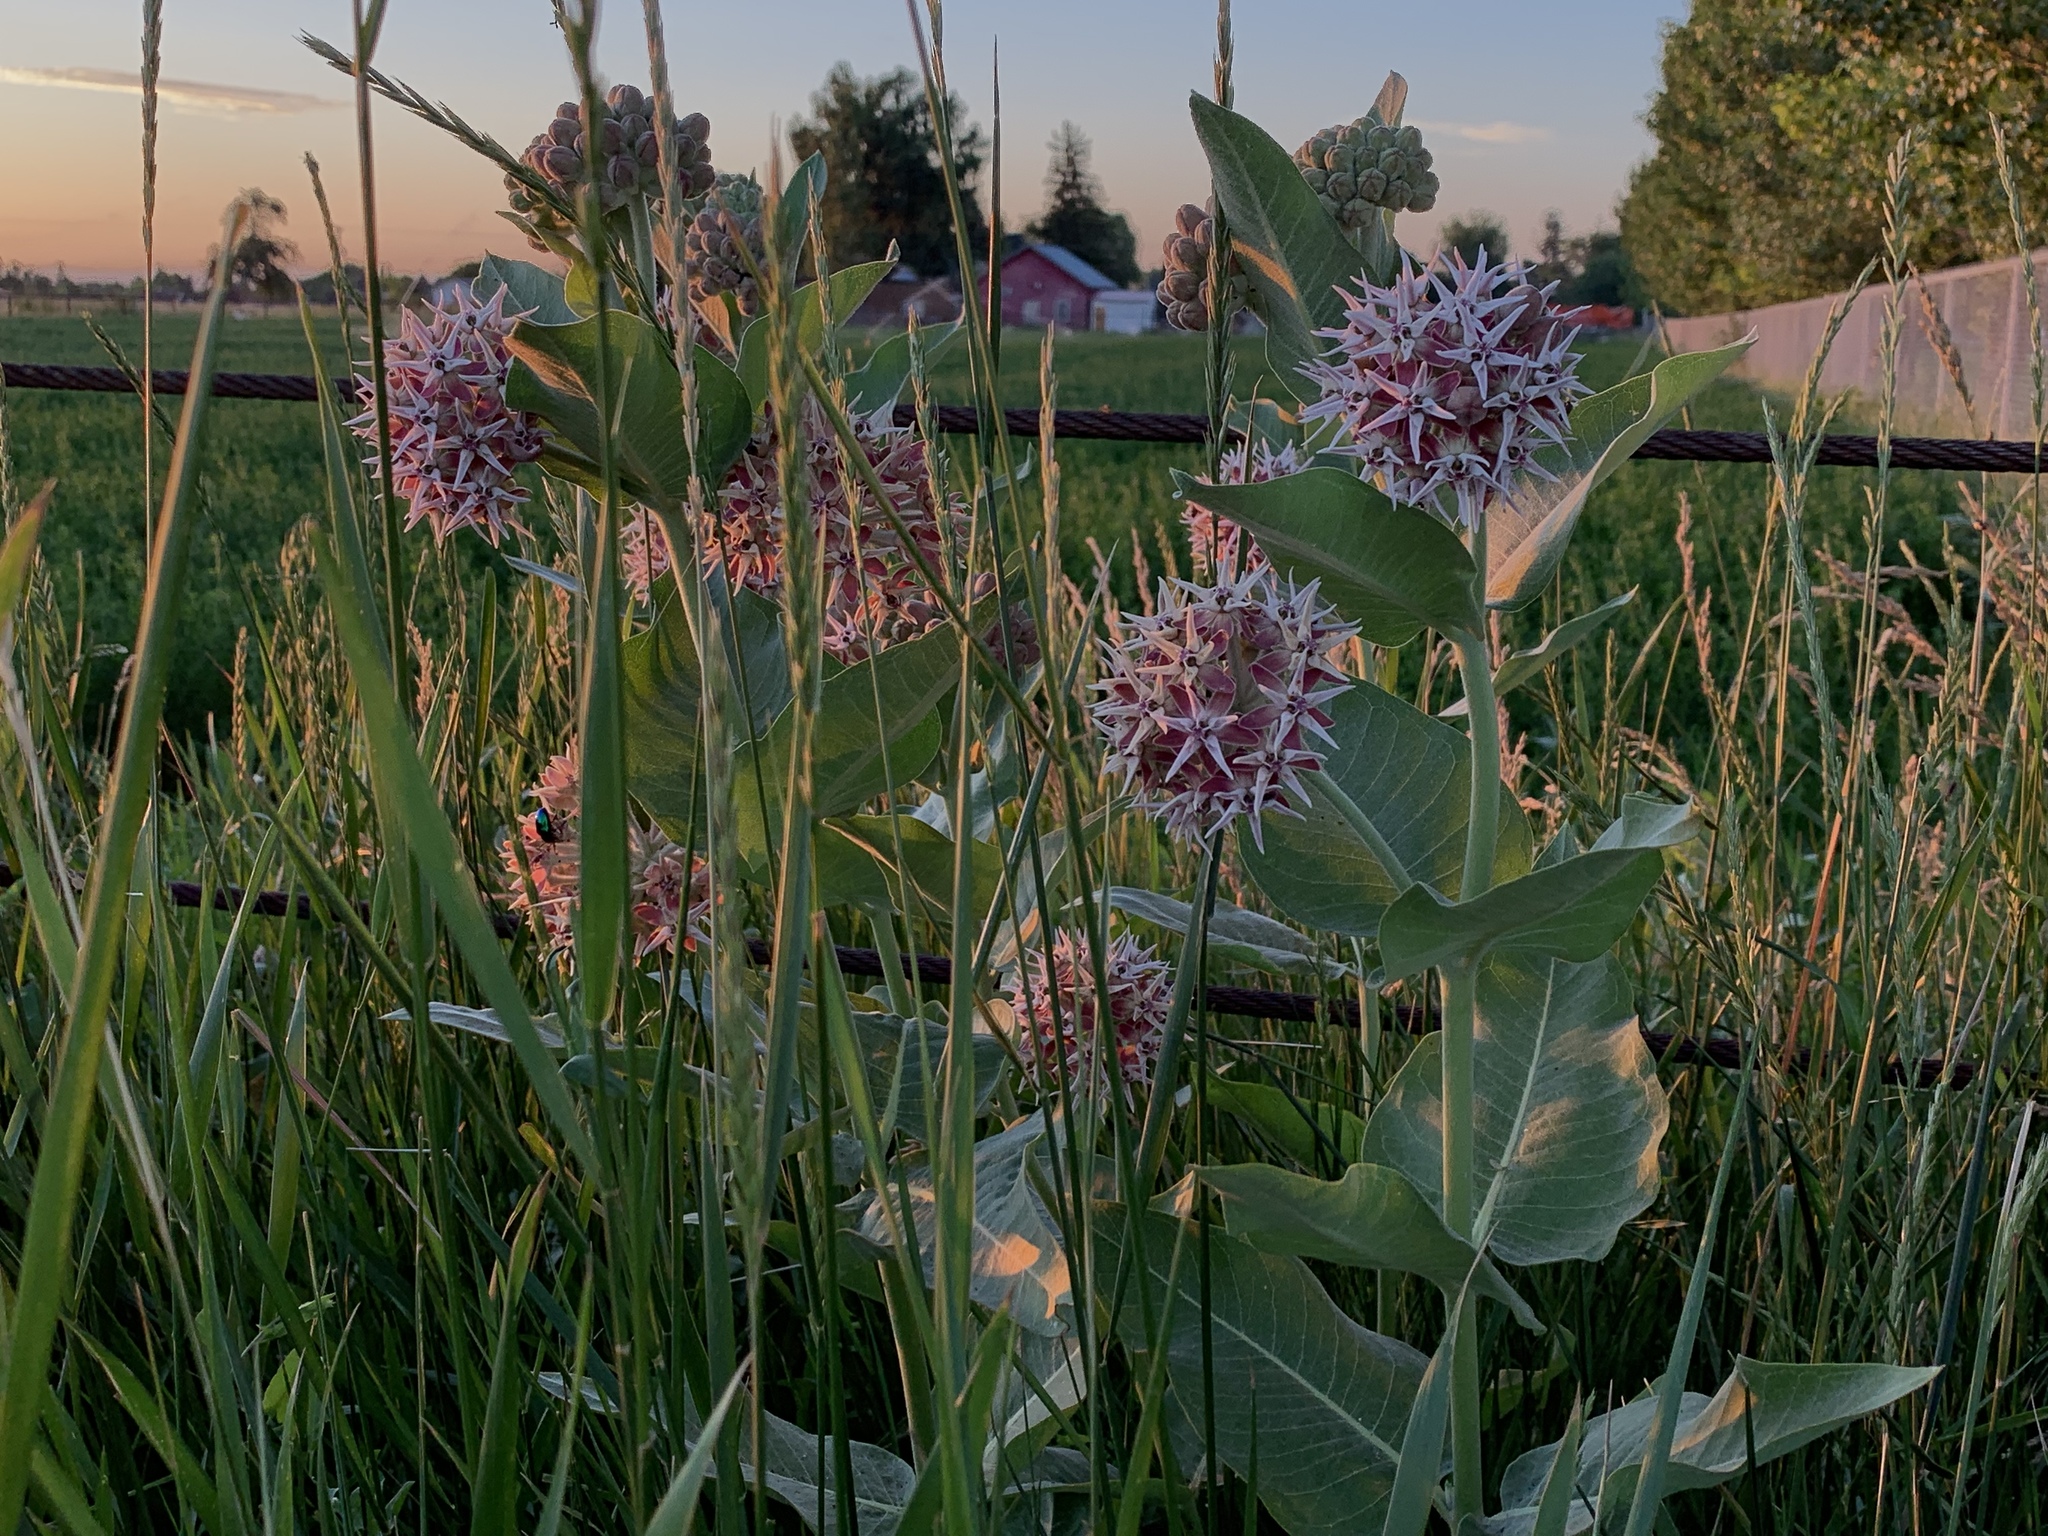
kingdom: Plantae
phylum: Tracheophyta
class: Magnoliopsida
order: Gentianales
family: Apocynaceae
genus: Asclepias
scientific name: Asclepias speciosa
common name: Showy milkweed
